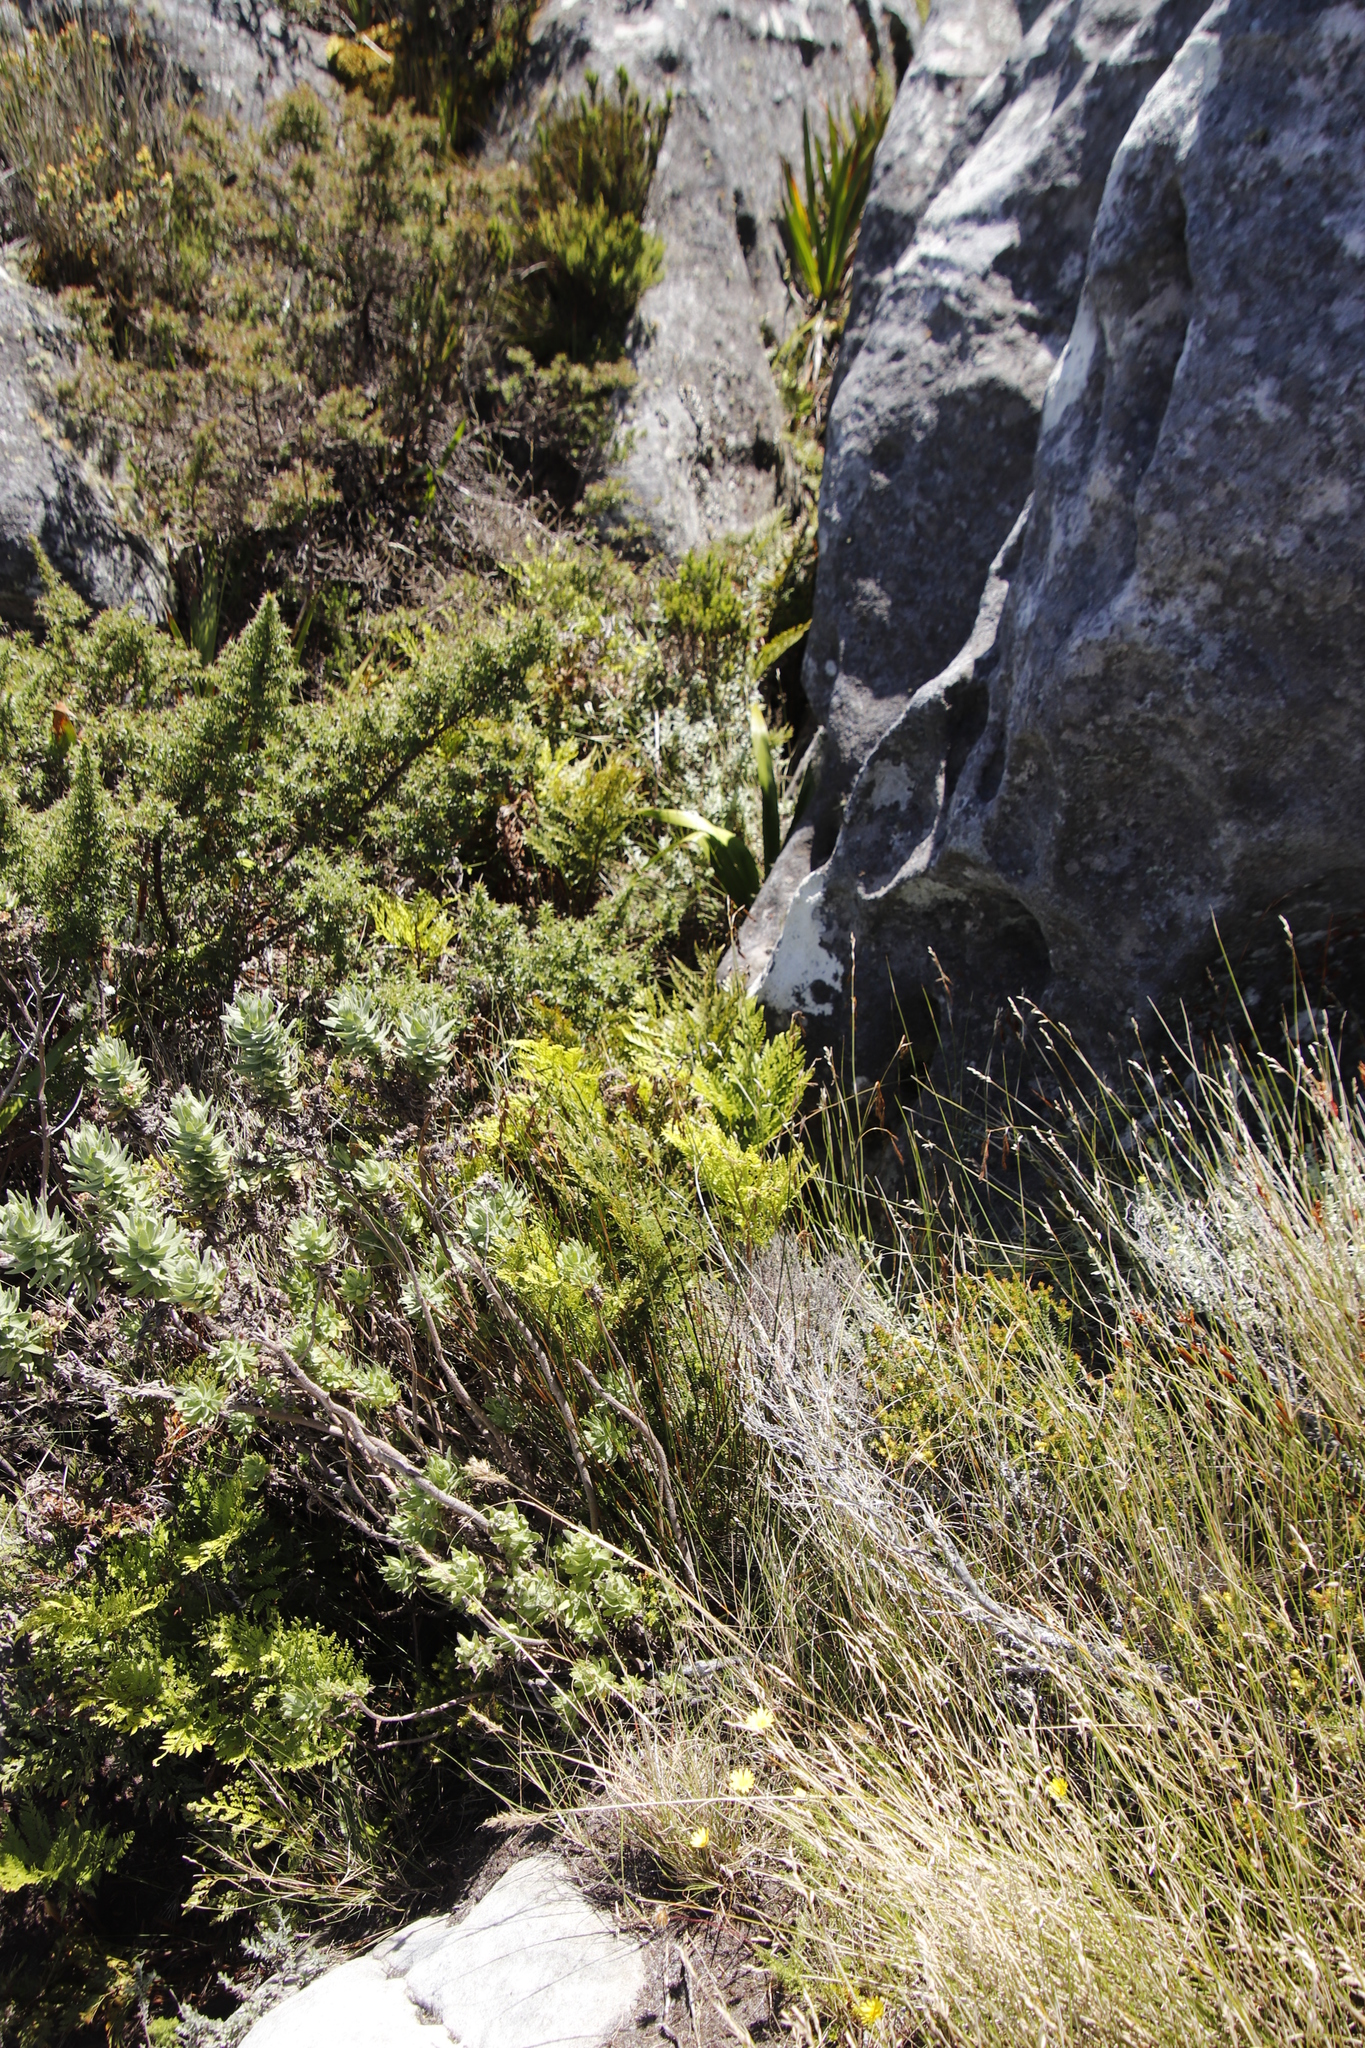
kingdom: Plantae
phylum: Tracheophyta
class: Polypodiopsida
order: Polypodiales
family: Dryopteridaceae
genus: Rumohra
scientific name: Rumohra adiantiformis
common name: Leather fern
